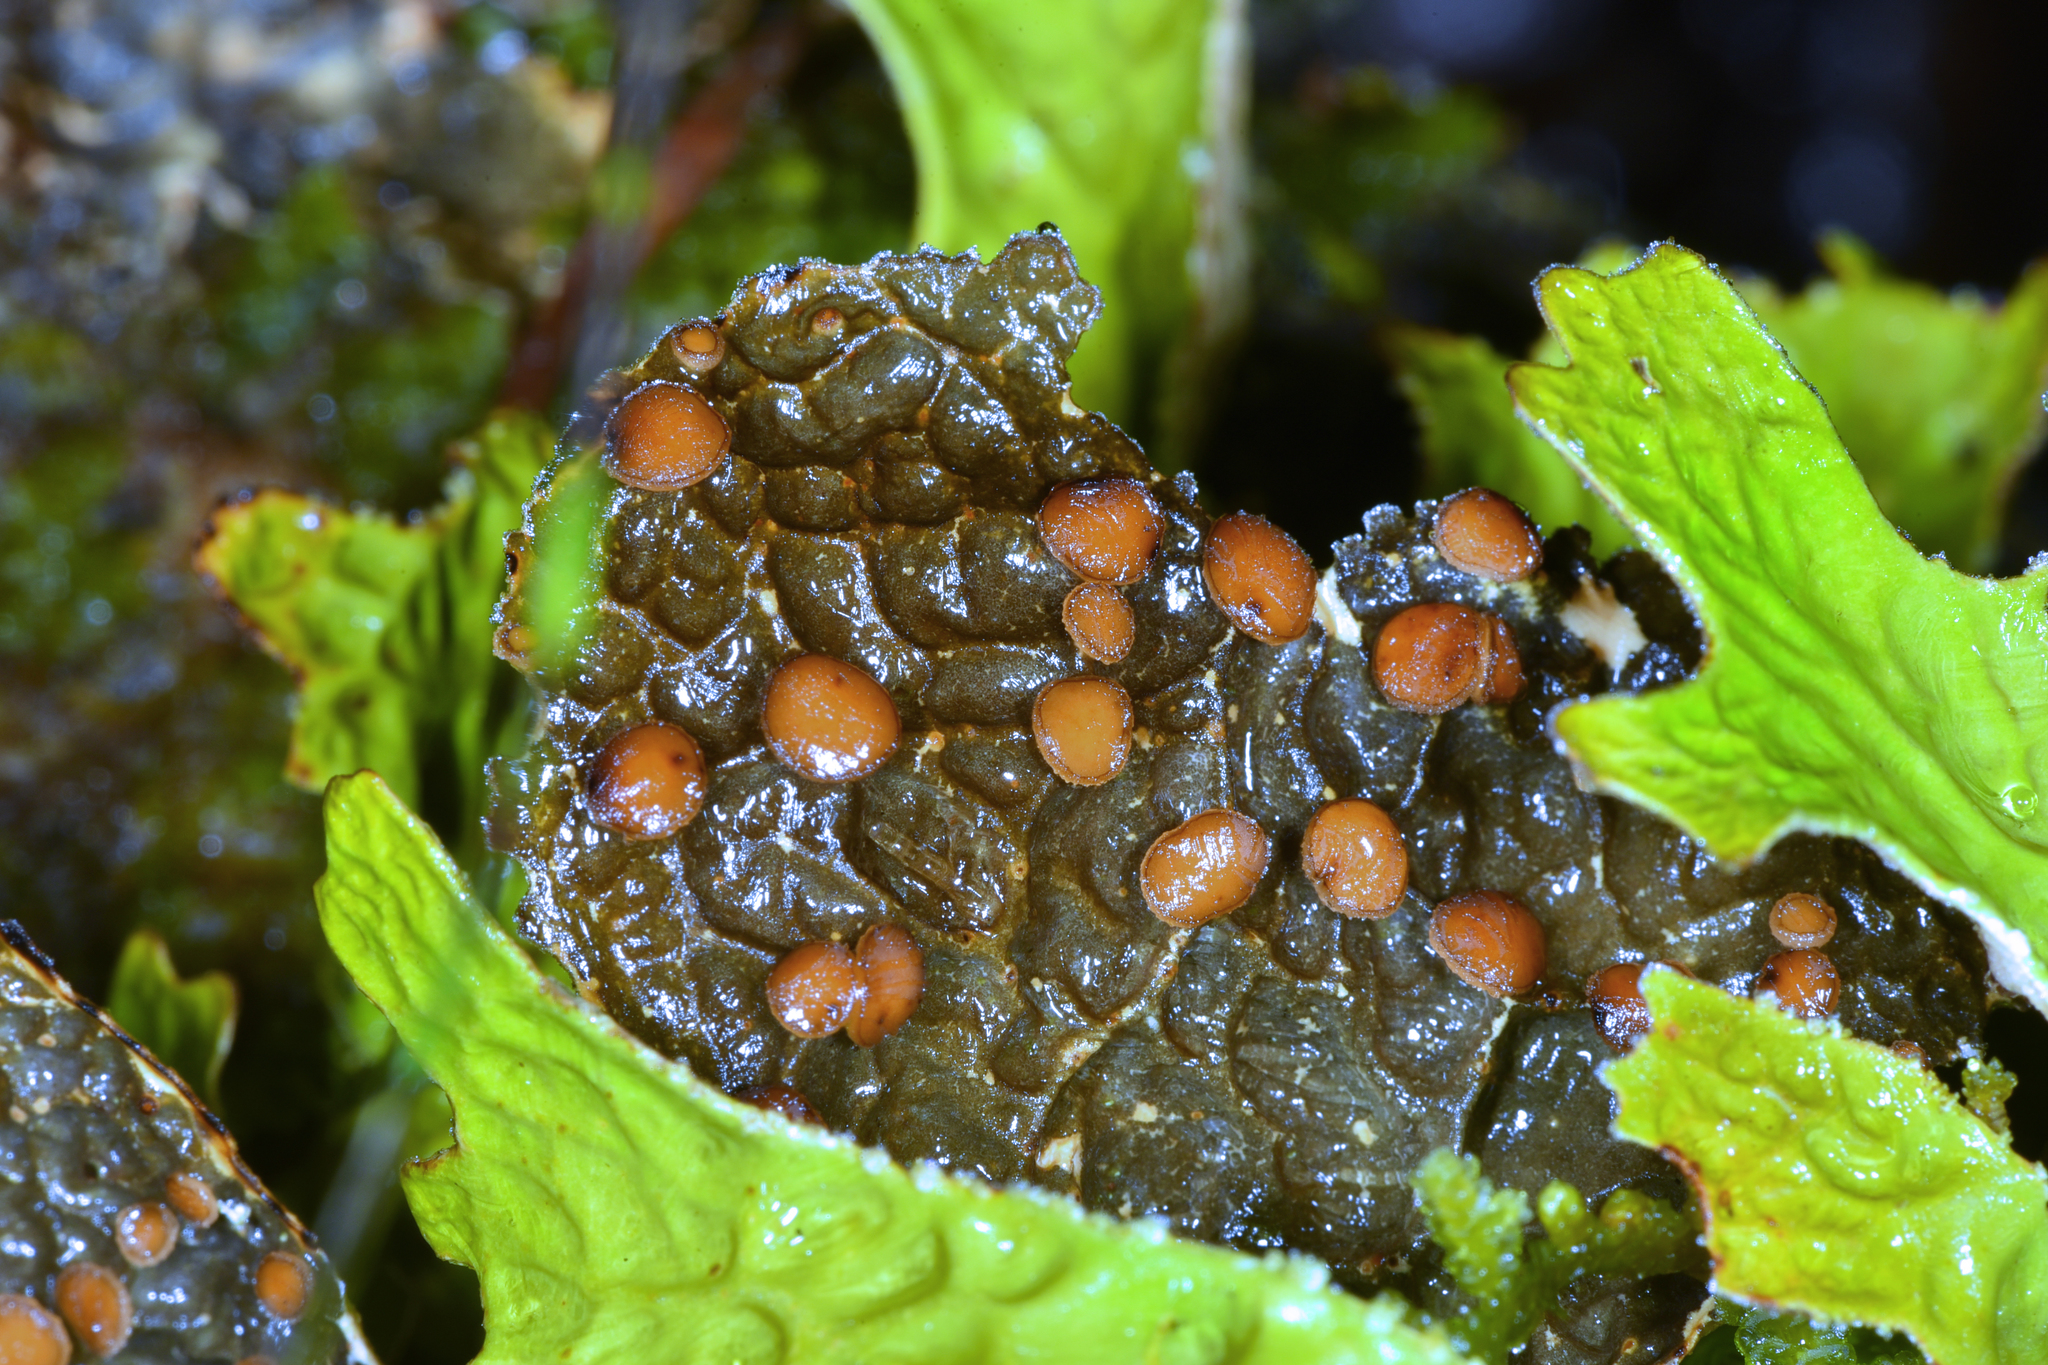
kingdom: Fungi
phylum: Ascomycota
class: Lecanoromycetes
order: Peltigerales
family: Lobariaceae
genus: Lobaria
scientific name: Lobaria anthraspis
